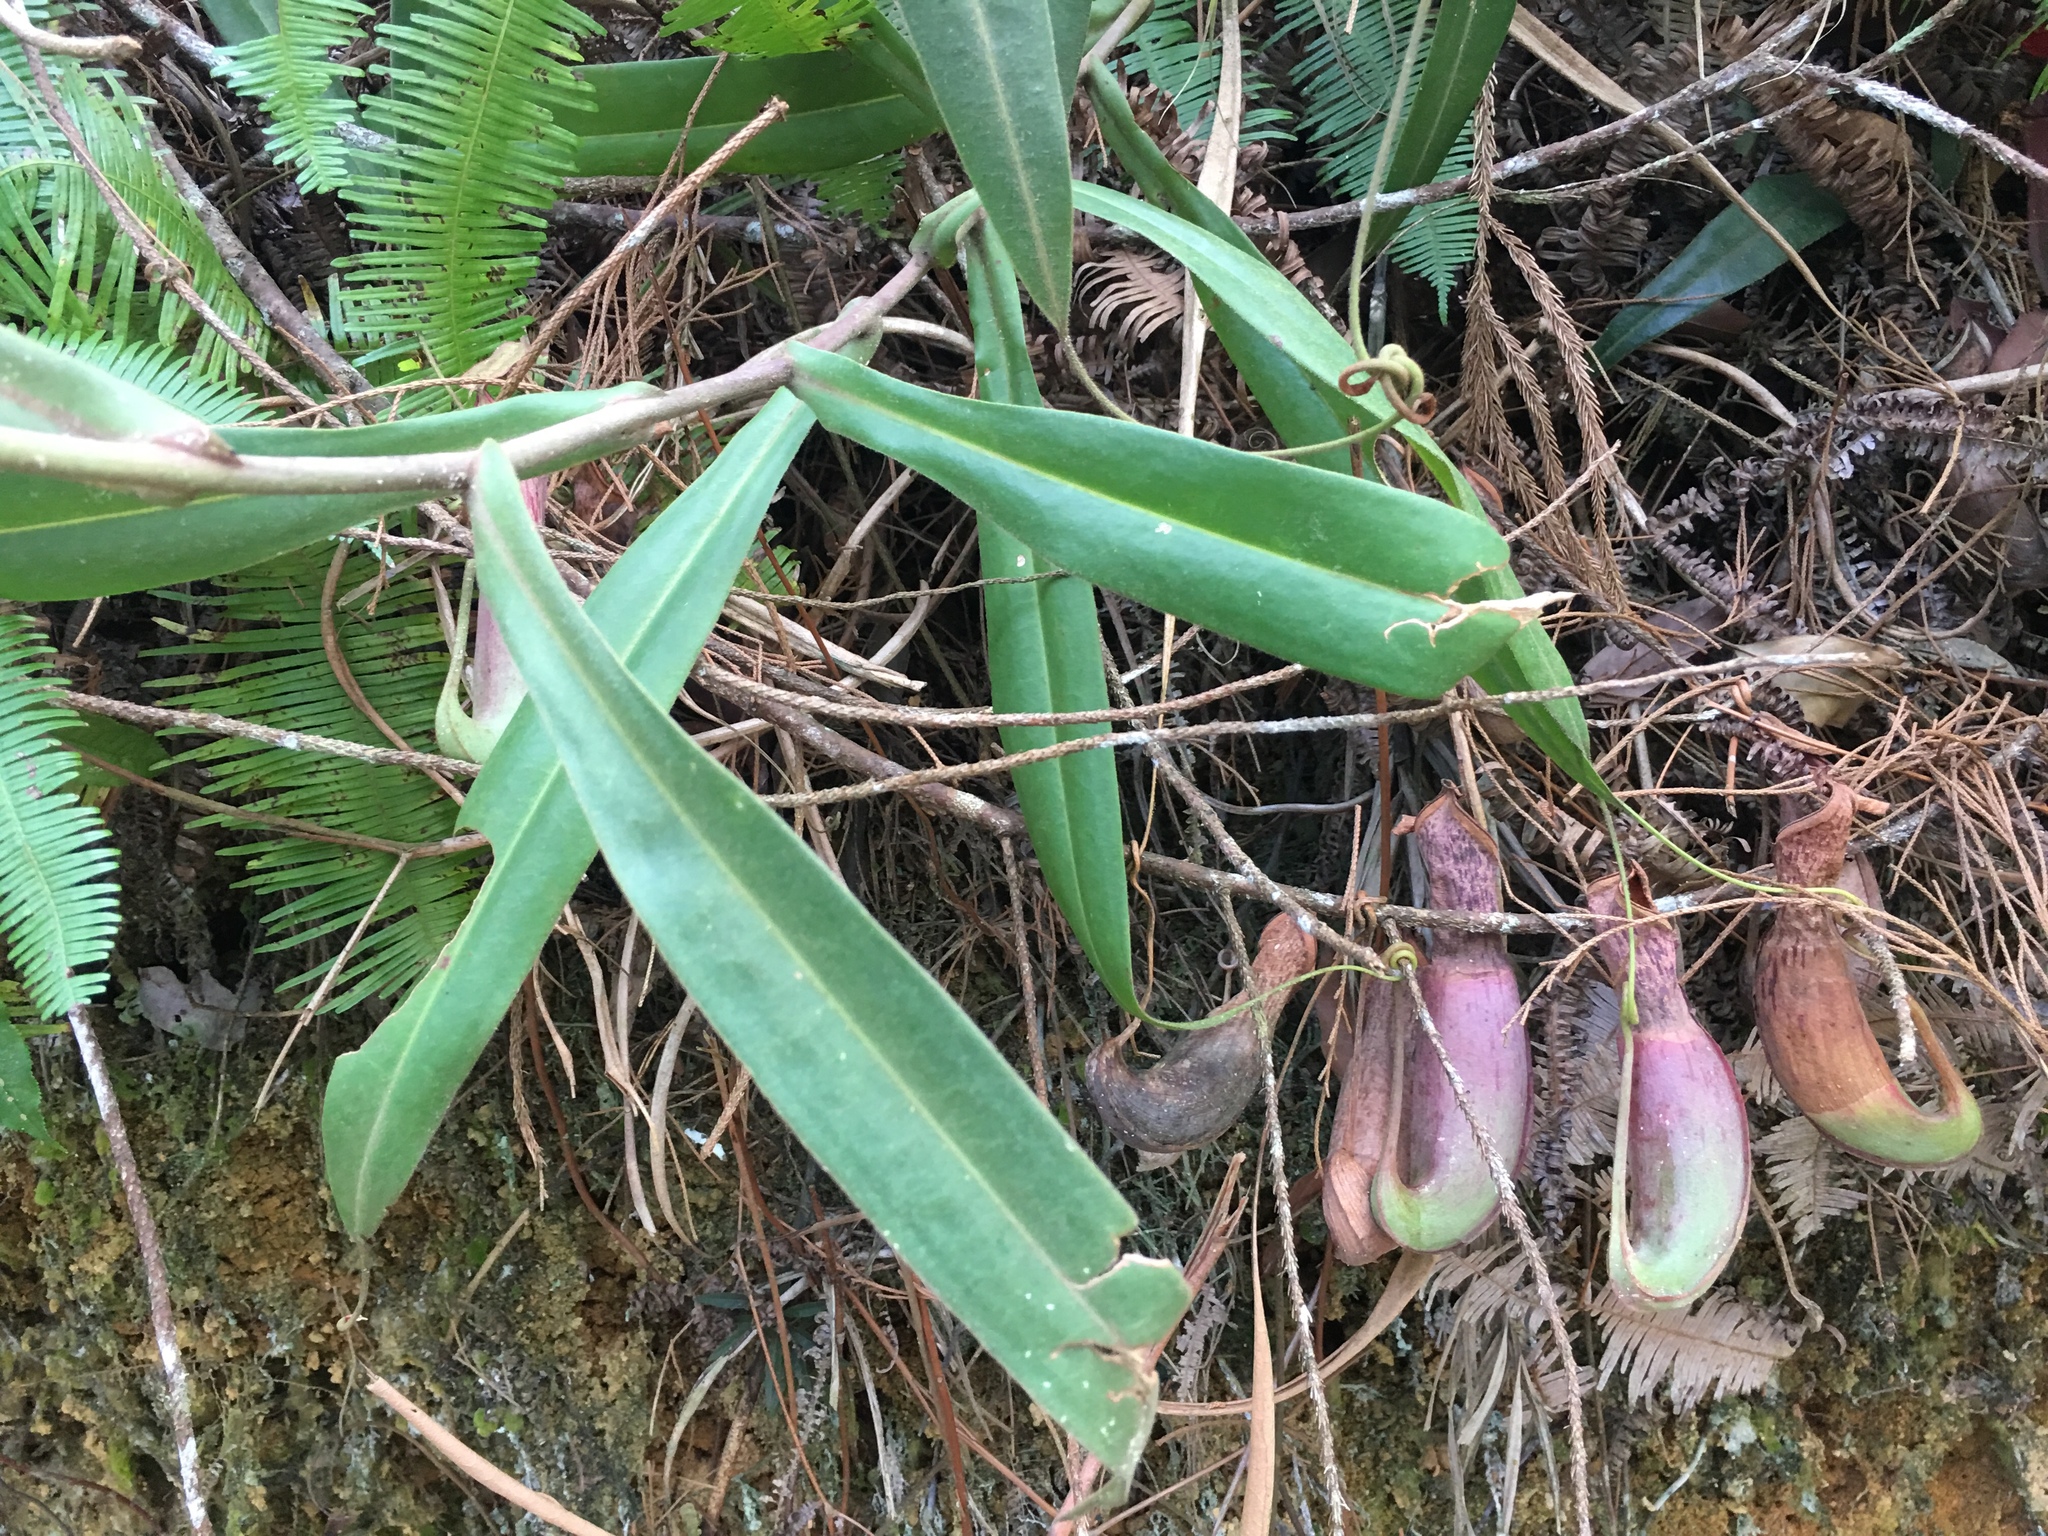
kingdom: Plantae
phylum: Tracheophyta
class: Magnoliopsida
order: Caryophyllales
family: Nepenthaceae
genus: Nepenthes
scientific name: Nepenthes albomarginata
